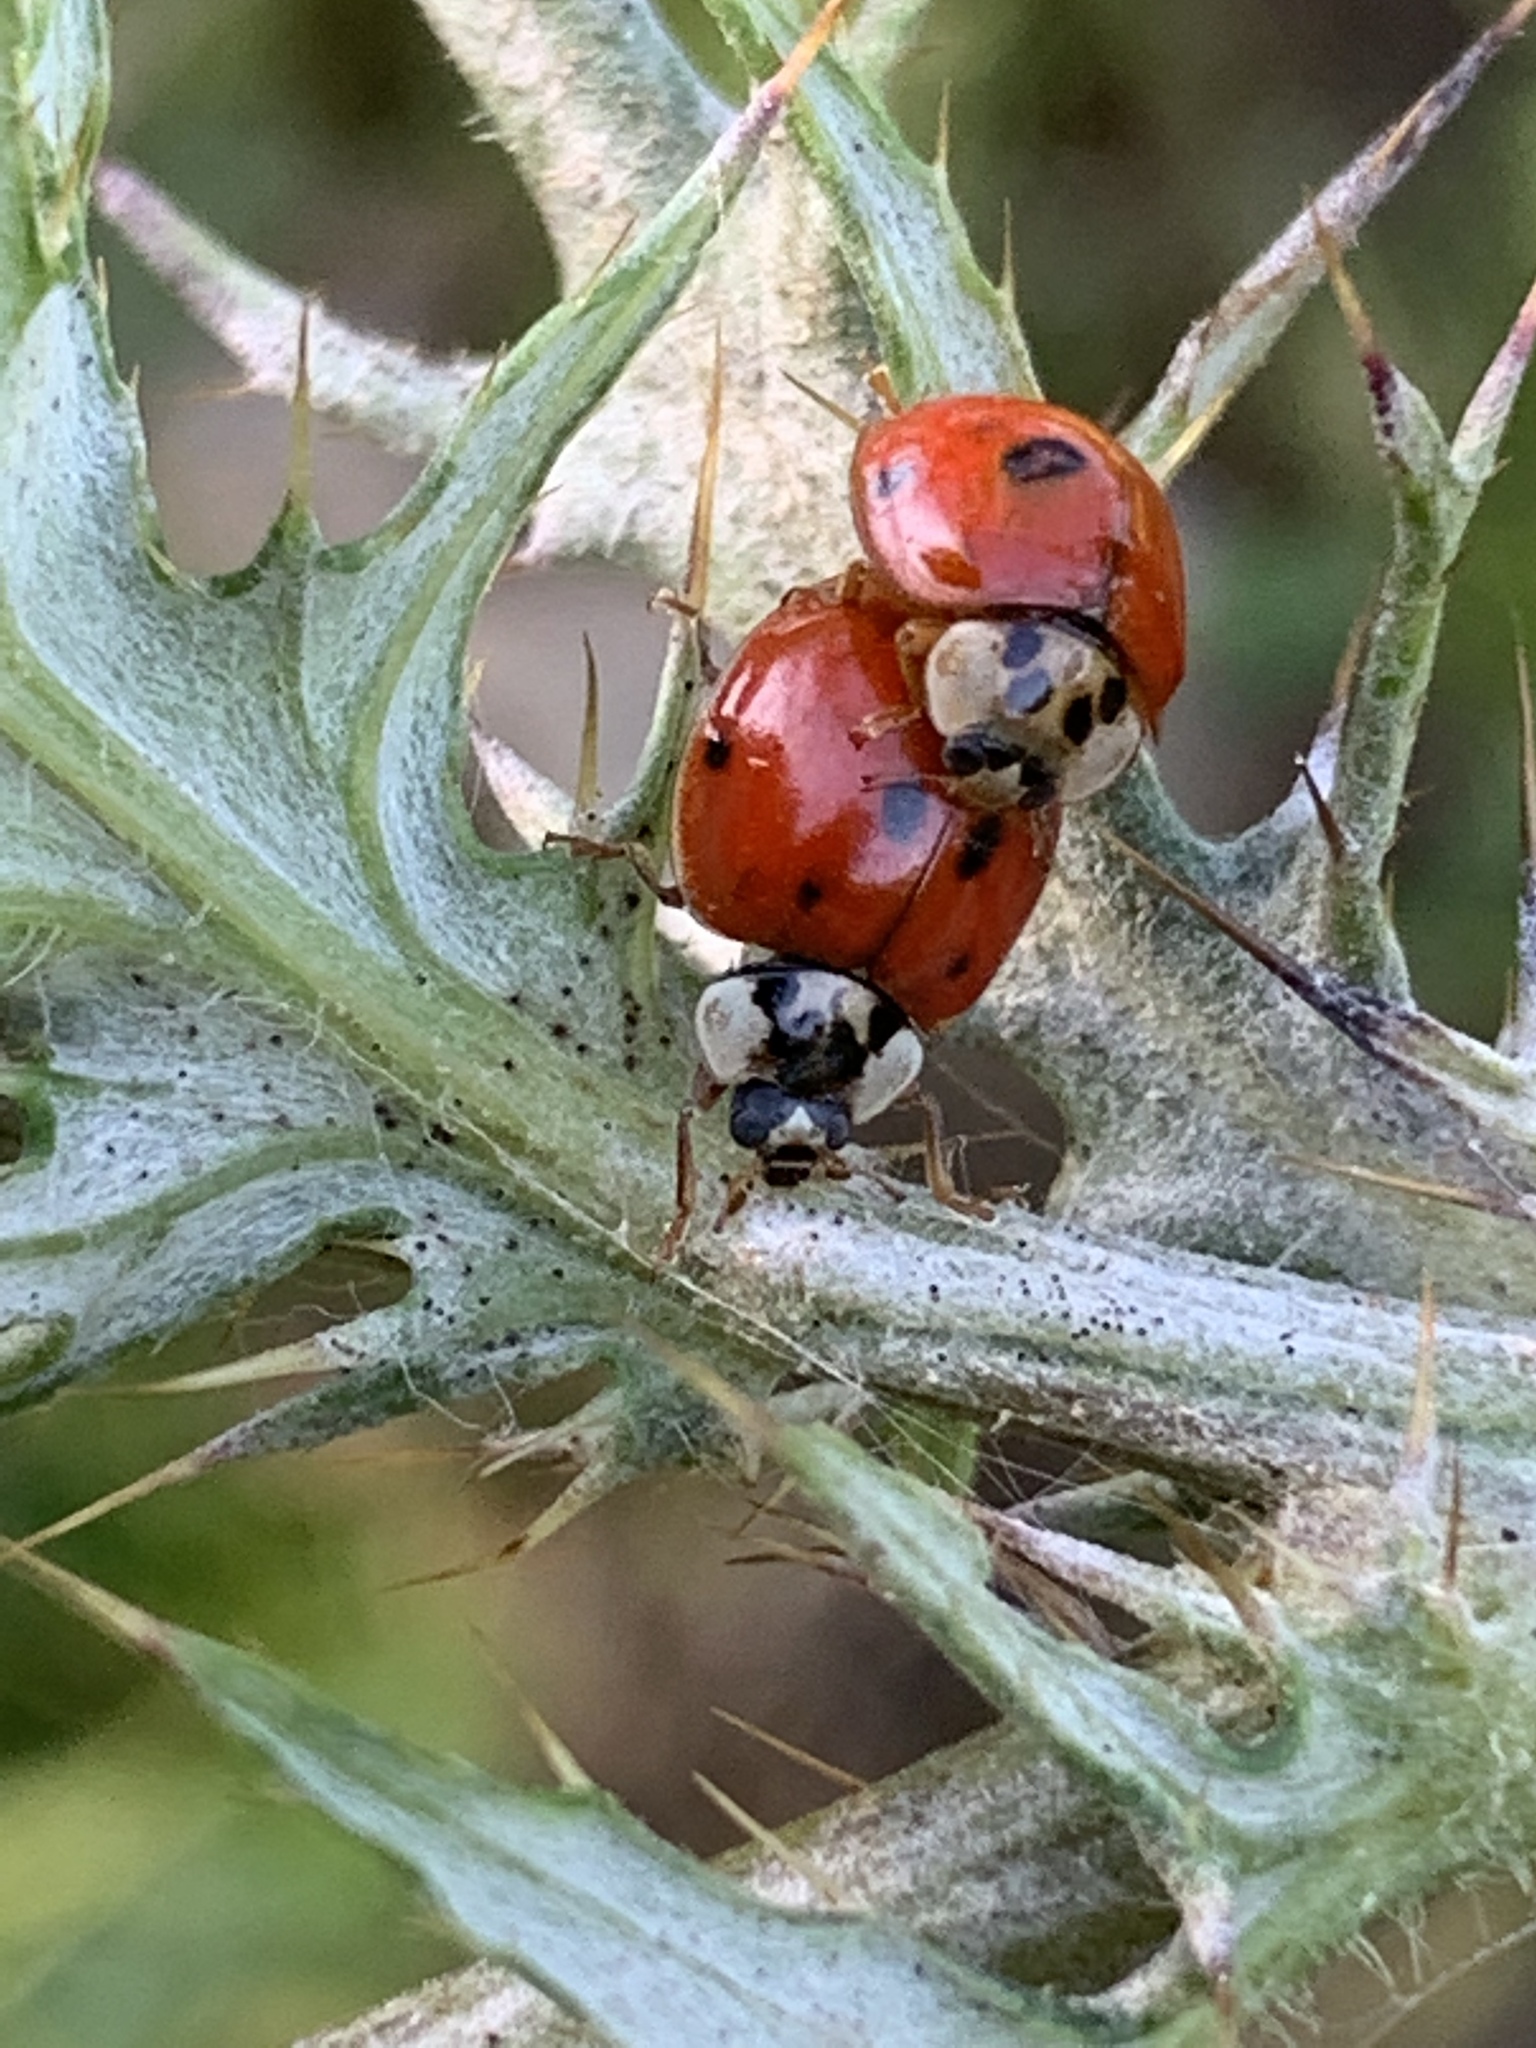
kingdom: Animalia
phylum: Arthropoda
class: Insecta
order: Coleoptera
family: Coccinellidae
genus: Harmonia
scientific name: Harmonia axyridis
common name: Harlequin ladybird
